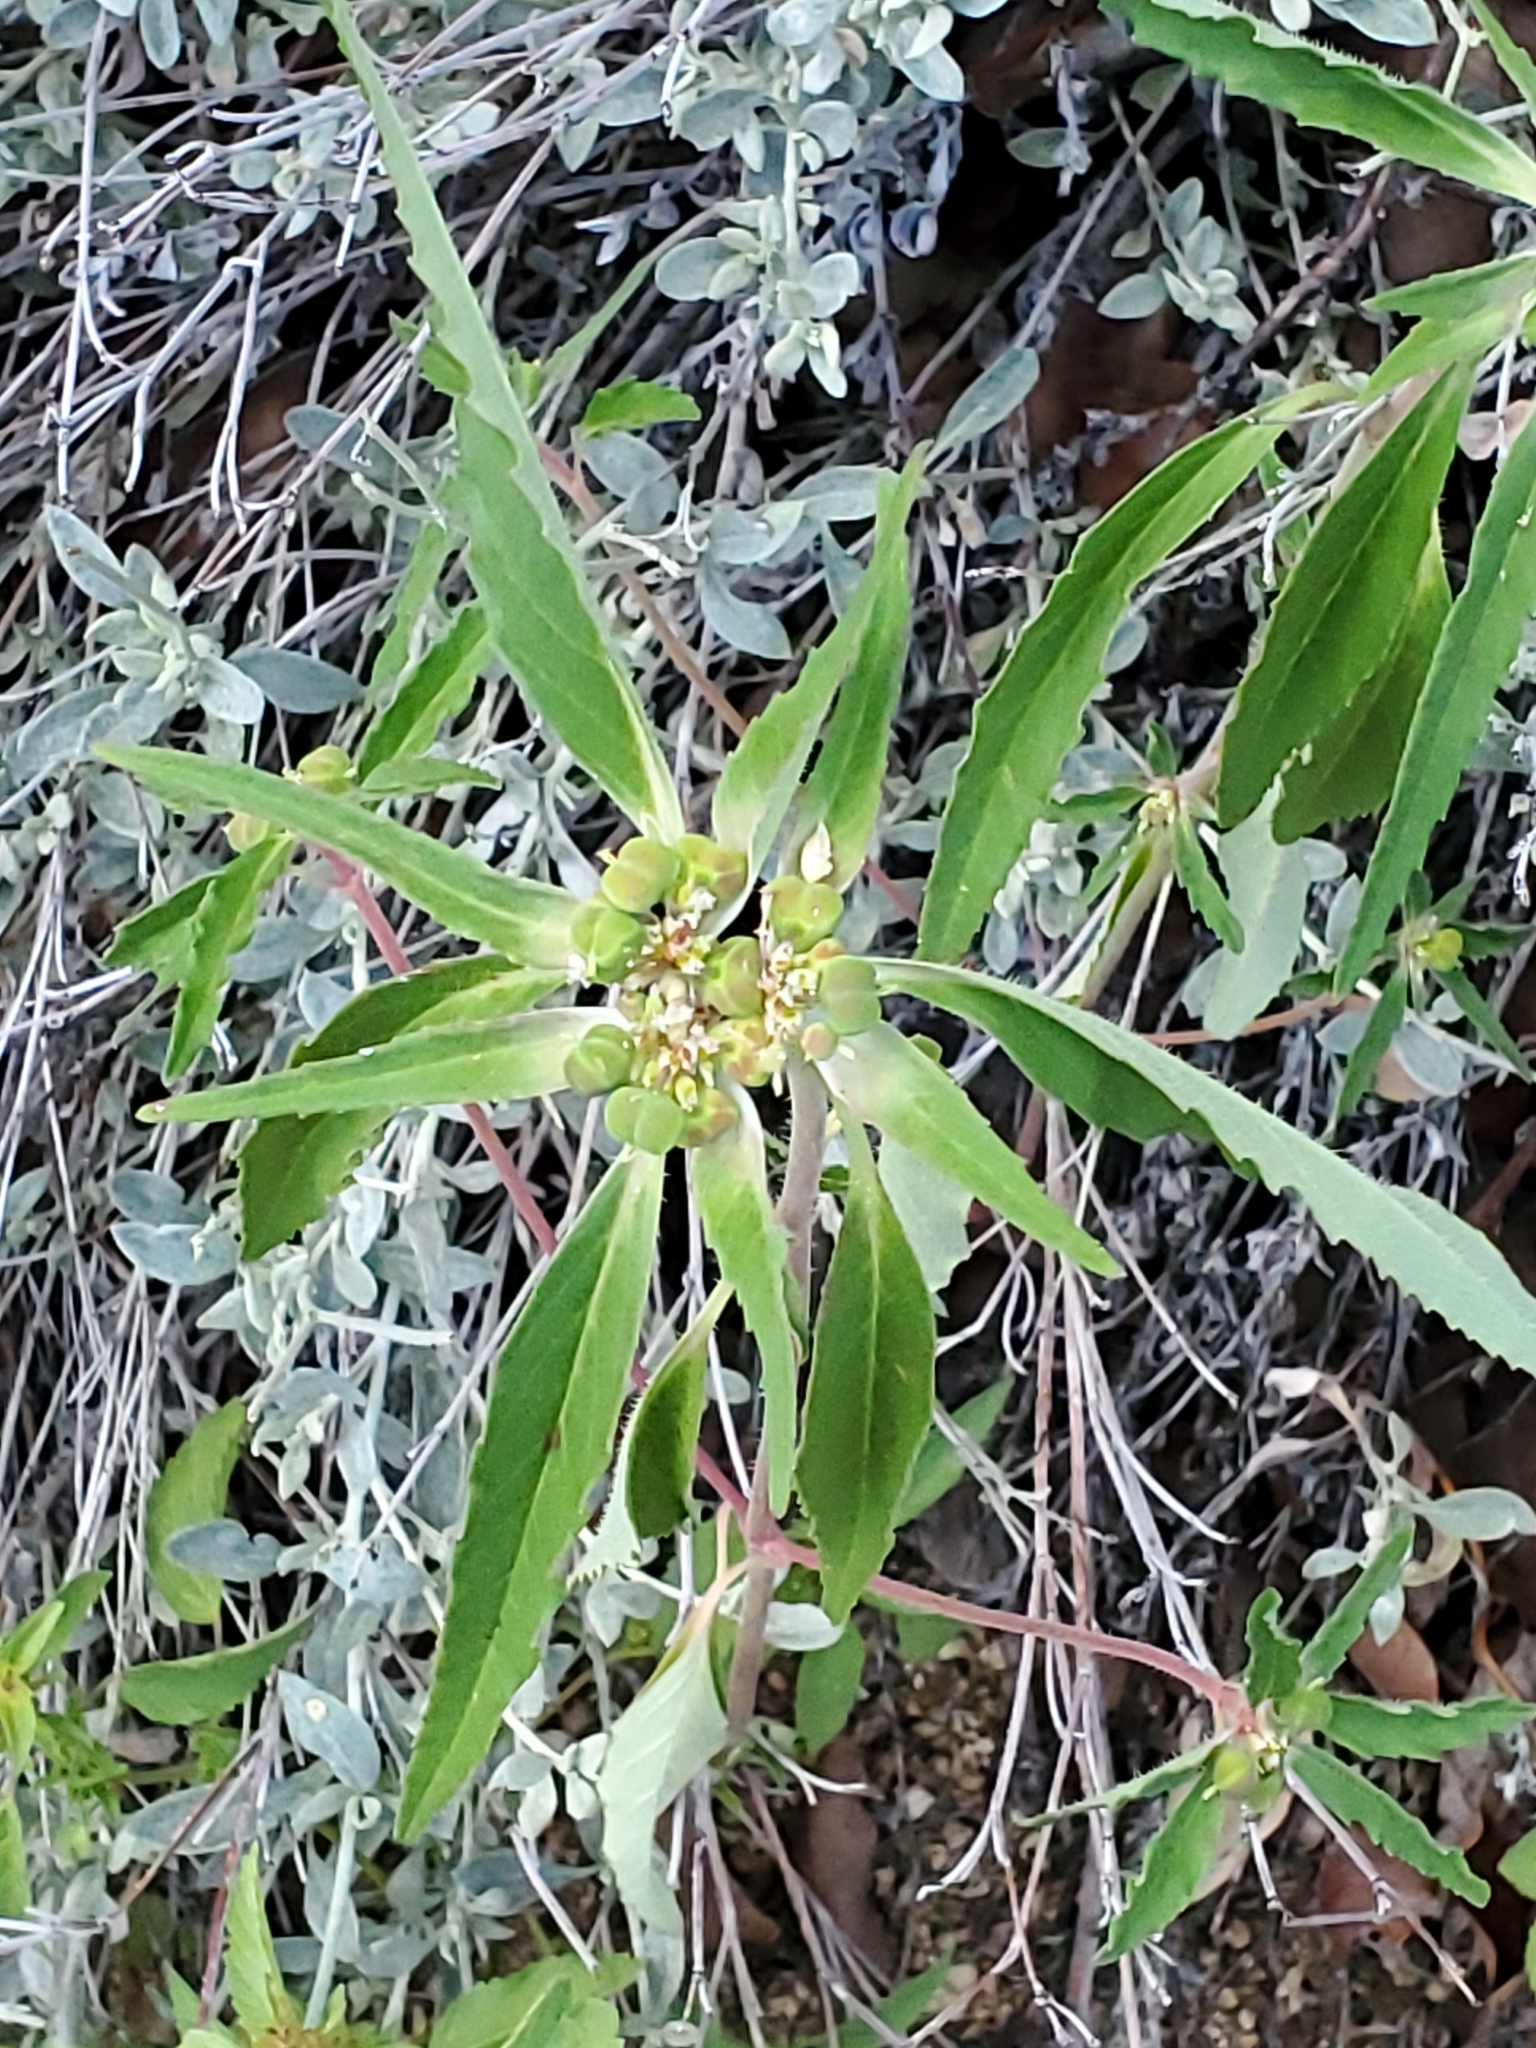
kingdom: Plantae
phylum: Tracheophyta
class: Magnoliopsida
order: Malpighiales
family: Euphorbiaceae
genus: Euphorbia
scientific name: Euphorbia davidii
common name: David's spurge
